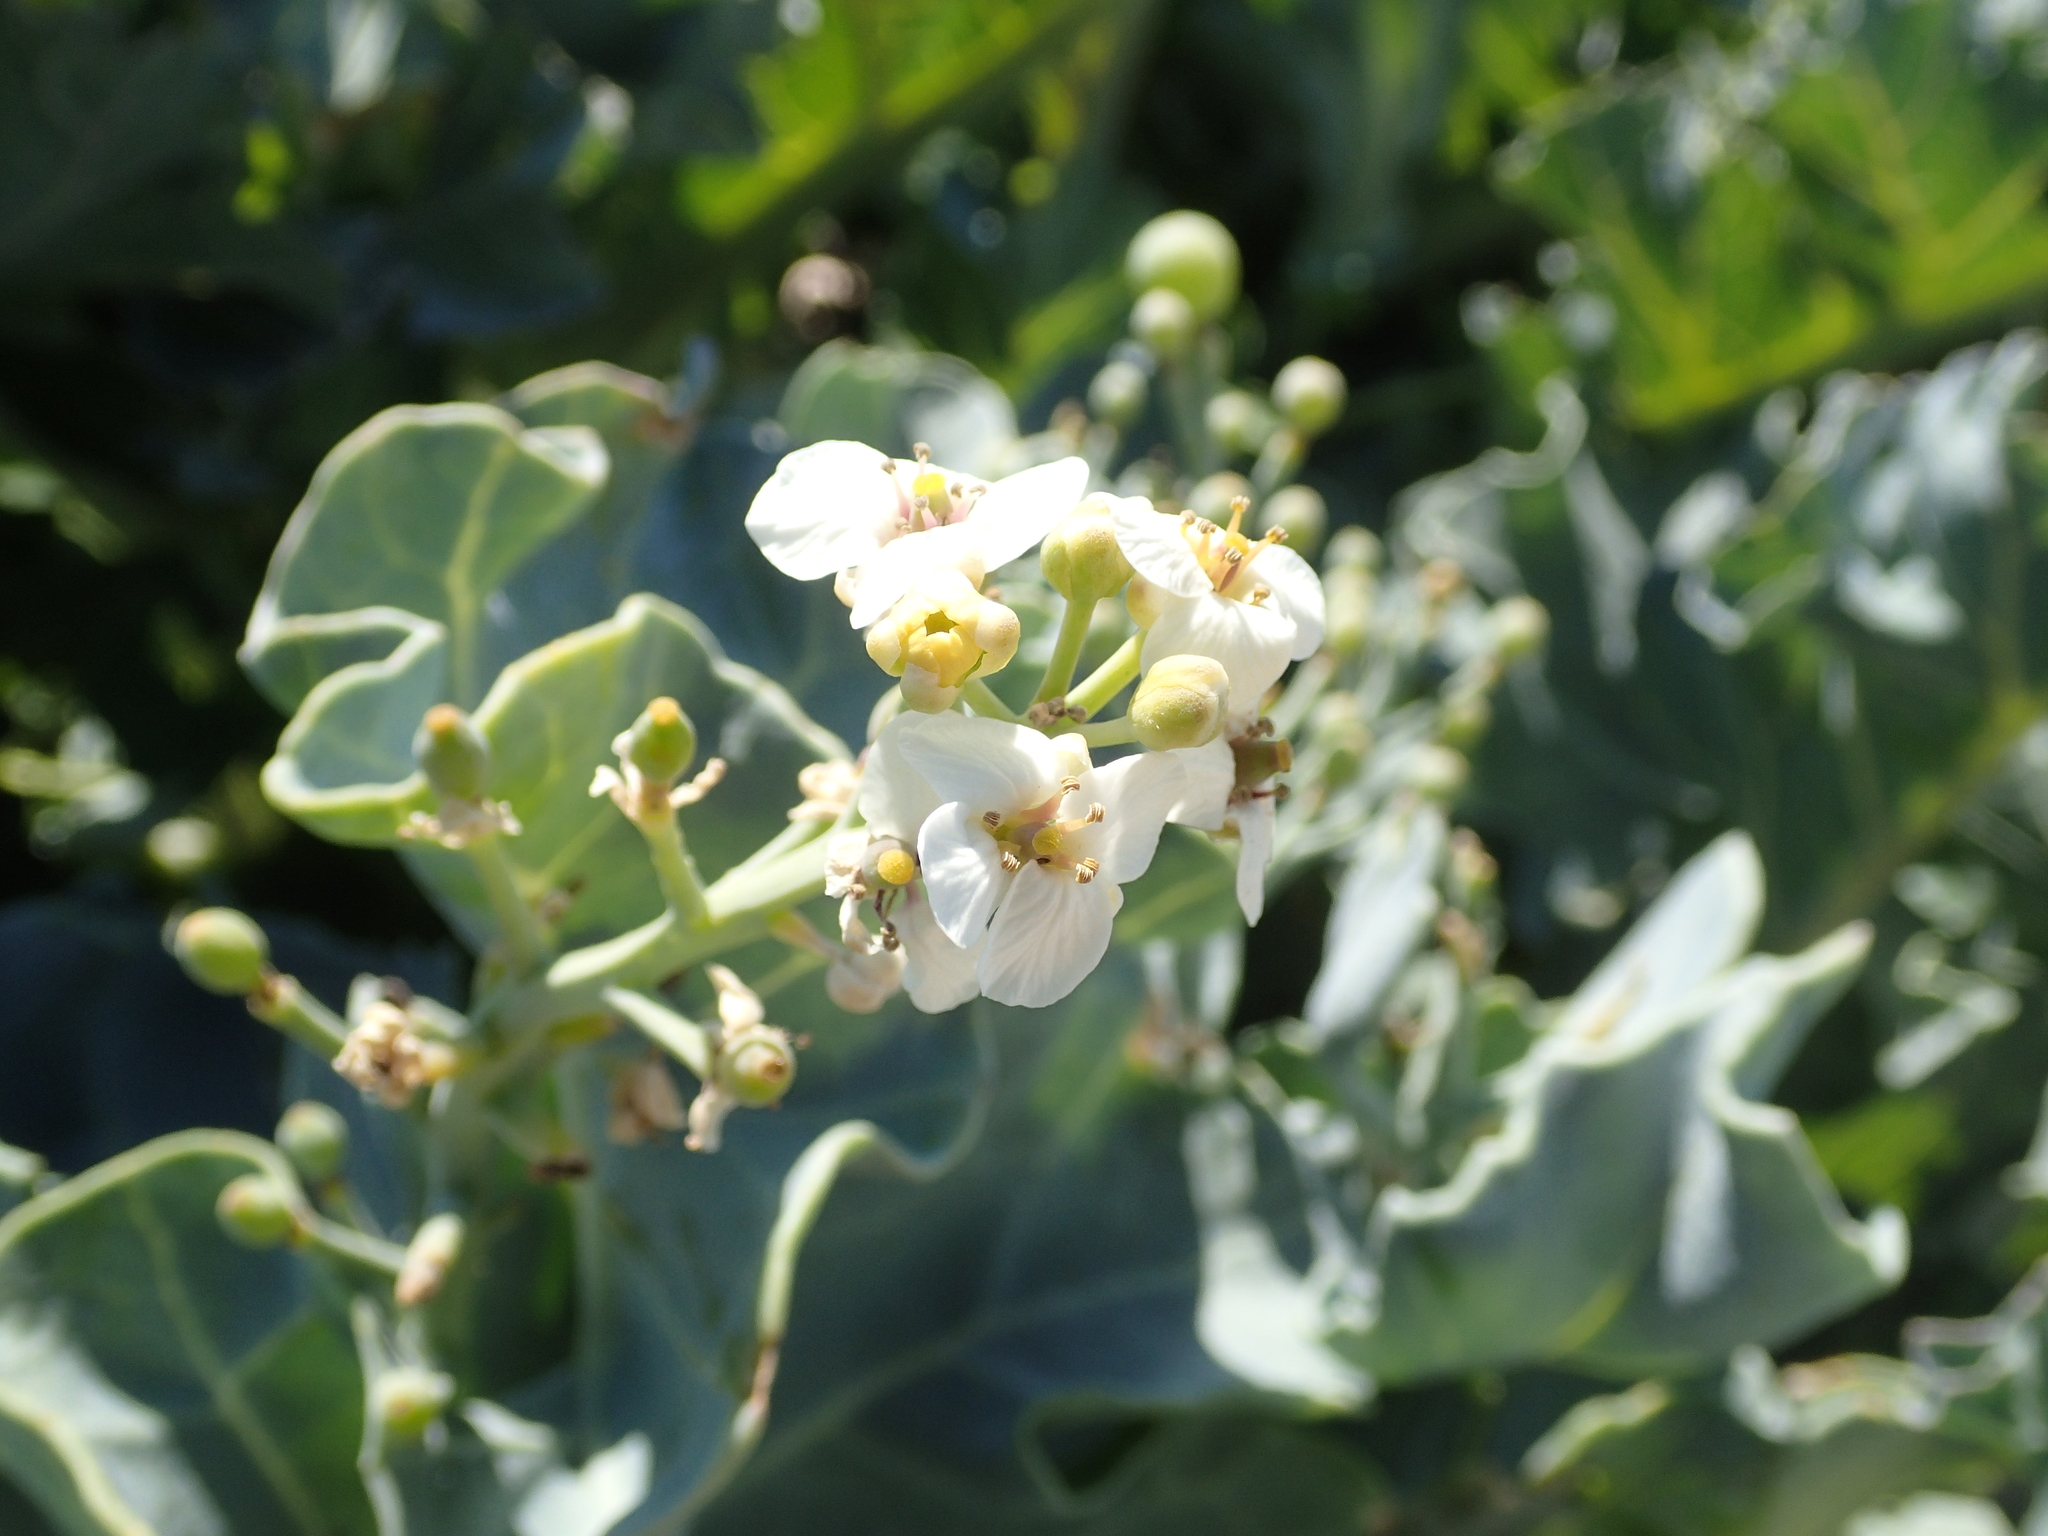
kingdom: Plantae
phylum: Tracheophyta
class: Magnoliopsida
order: Brassicales
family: Brassicaceae
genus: Crambe
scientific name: Crambe maritima
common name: Sea-kale
